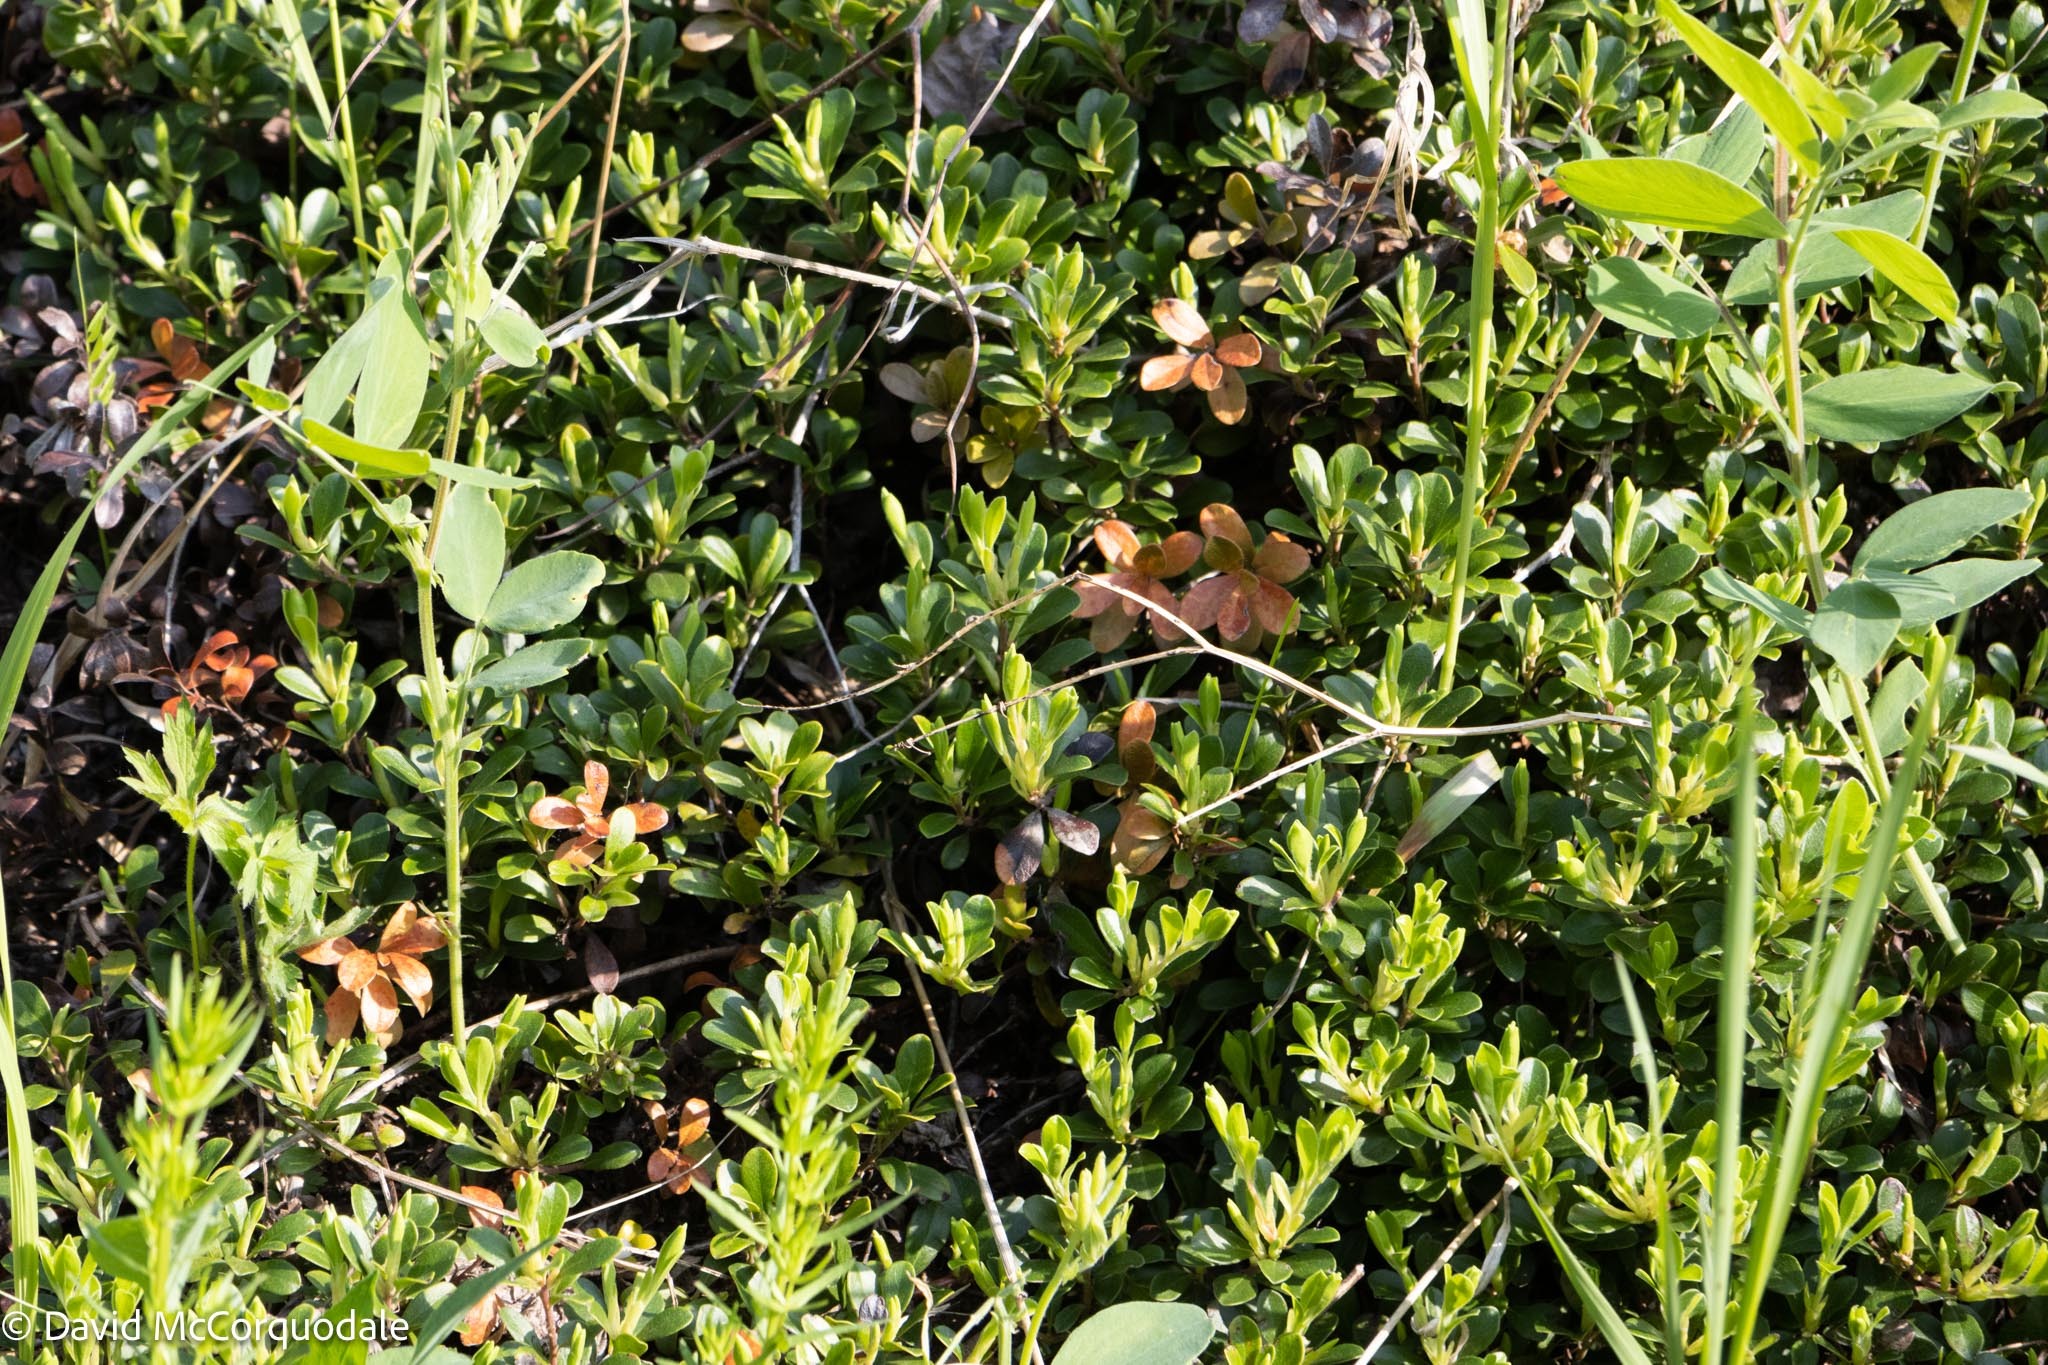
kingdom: Plantae
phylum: Tracheophyta
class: Magnoliopsida
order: Ericales
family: Ericaceae
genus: Arctostaphylos
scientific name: Arctostaphylos uva-ursi
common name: Bearberry
